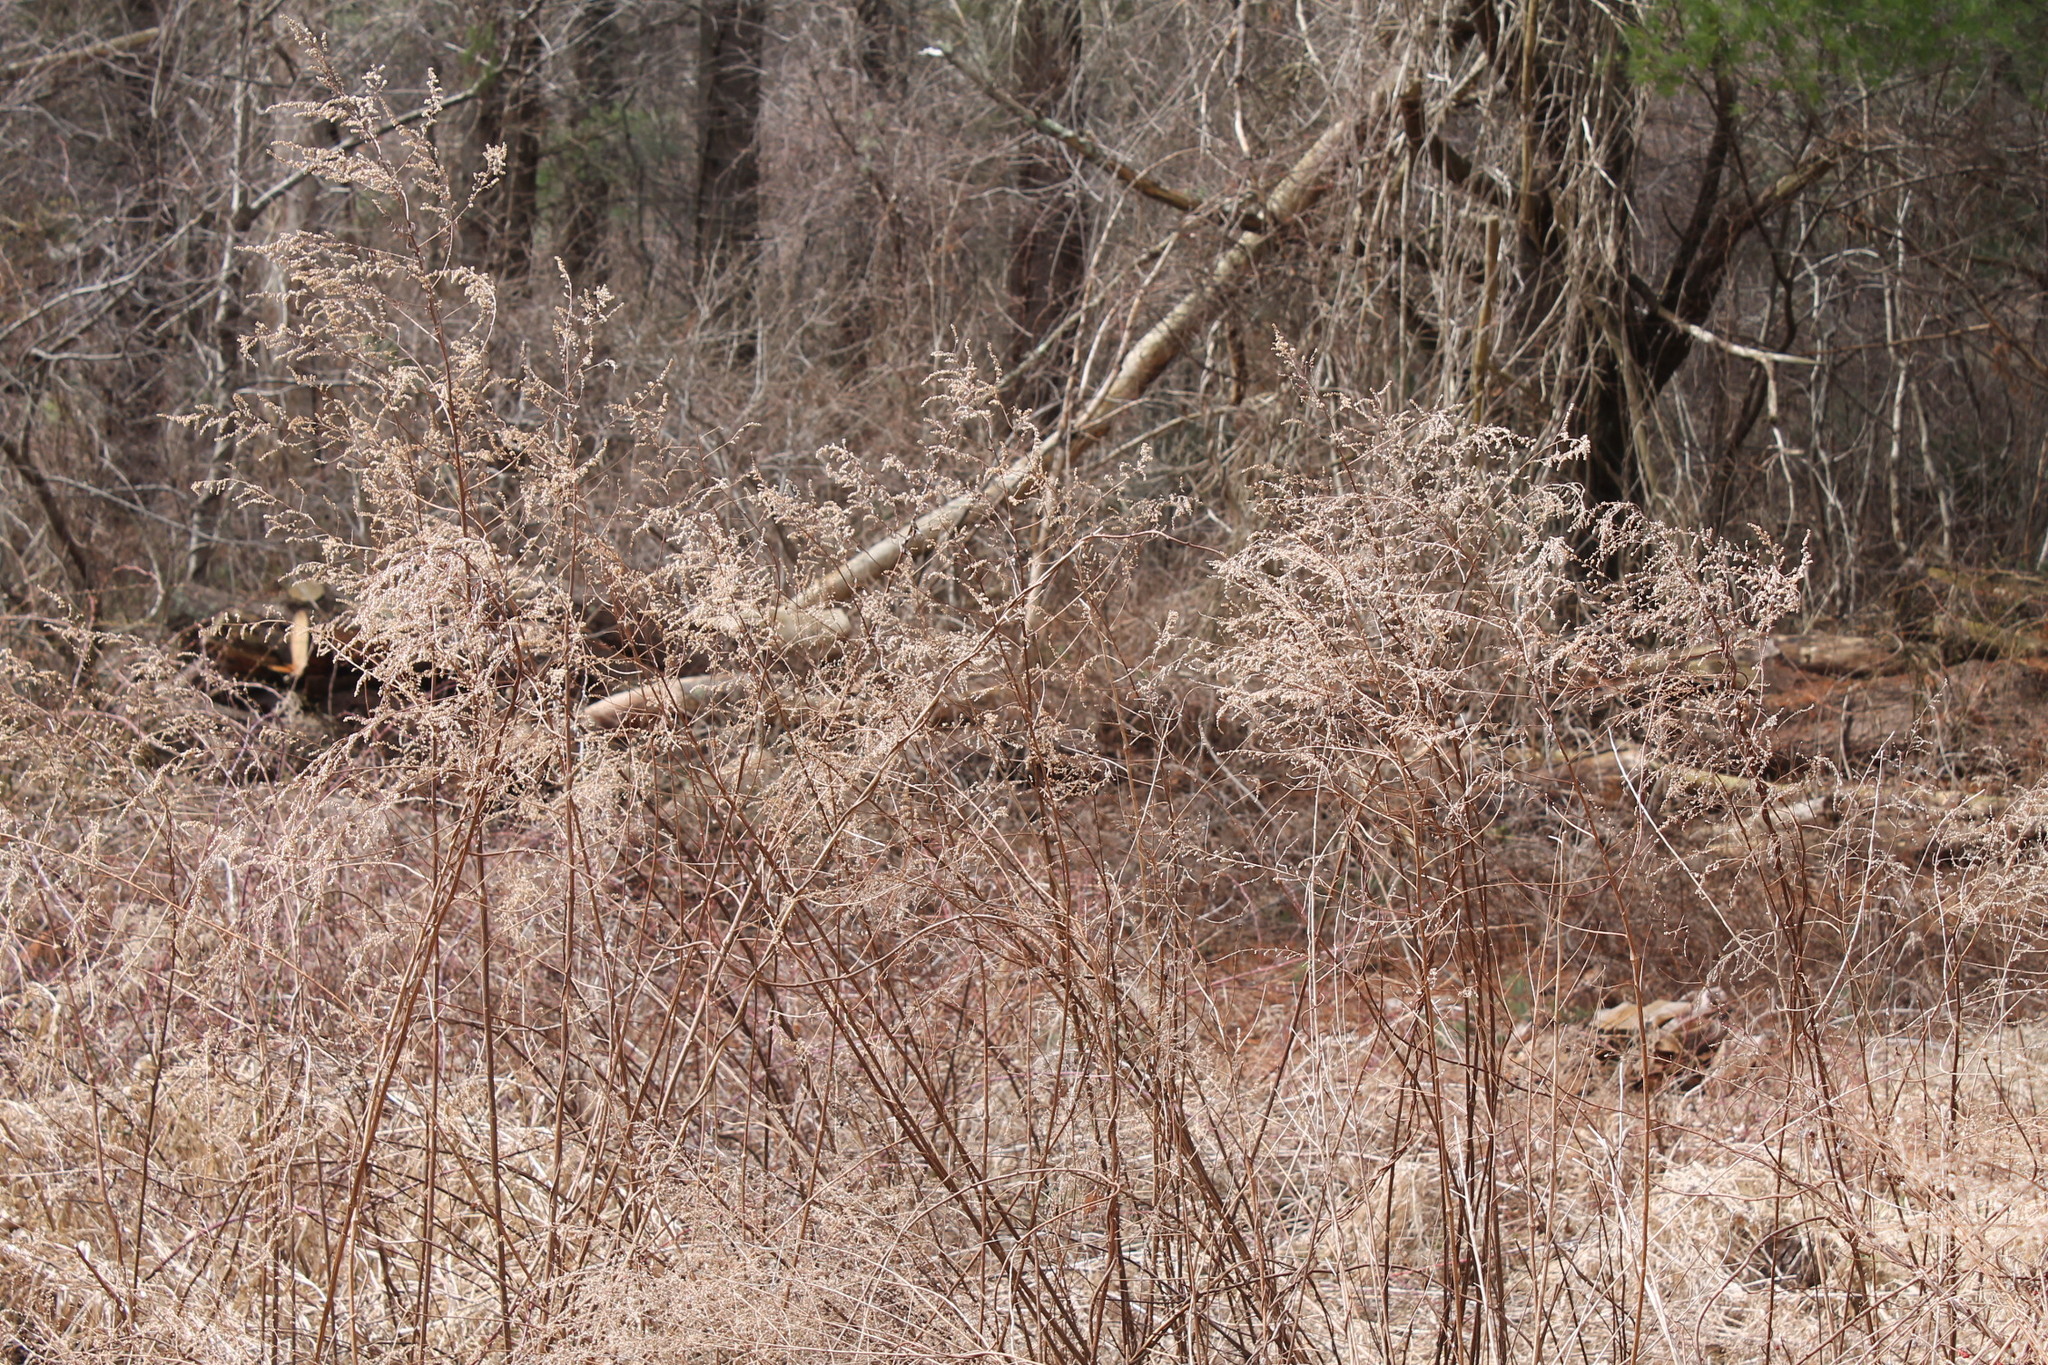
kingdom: Plantae
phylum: Tracheophyta
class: Magnoliopsida
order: Asterales
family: Asteraceae
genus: Artemisia
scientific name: Artemisia vulgaris
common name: Mugwort
